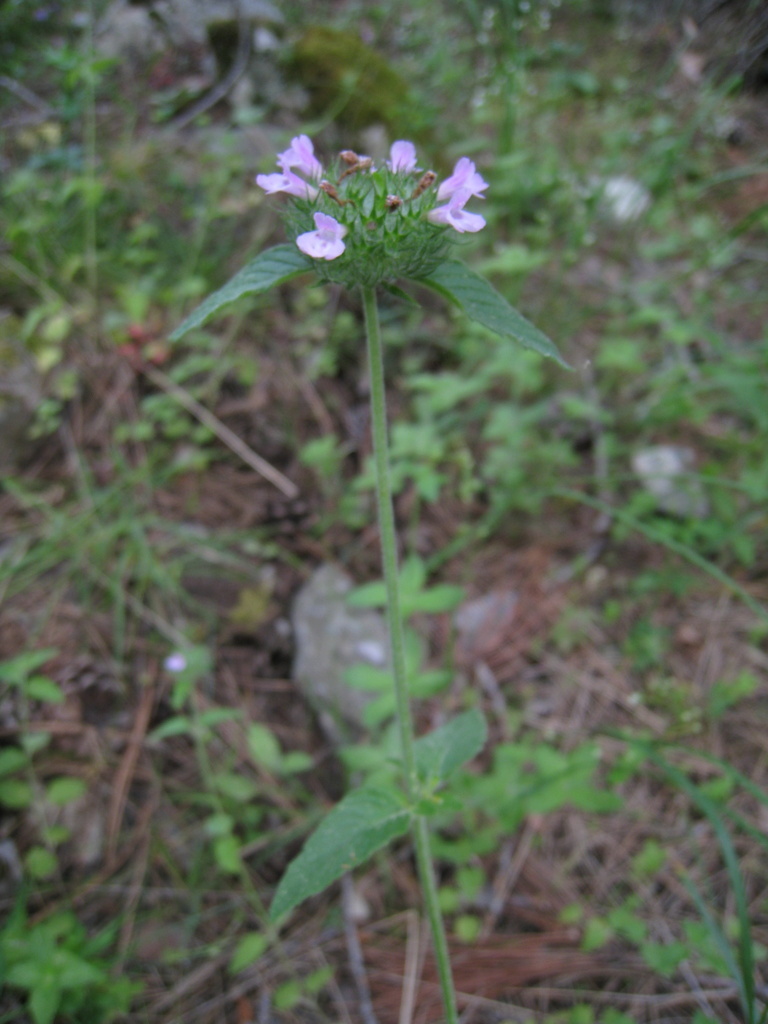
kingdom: Plantae
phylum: Tracheophyta
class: Magnoliopsida
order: Lamiales
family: Lamiaceae
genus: Clinopodium
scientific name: Clinopodium vulgare
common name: Wild basil
